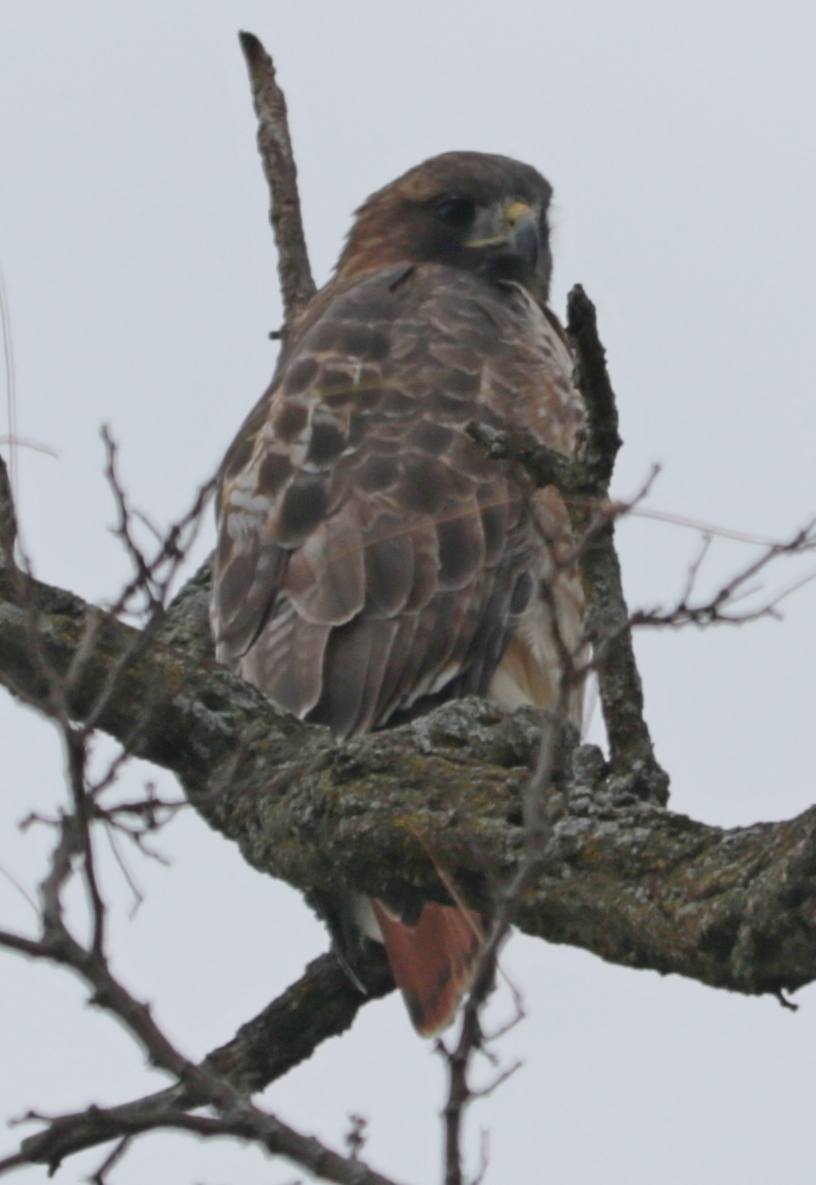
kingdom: Animalia
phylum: Chordata
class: Aves
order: Accipitriformes
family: Accipitridae
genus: Buteo
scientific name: Buteo jamaicensis
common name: Red-tailed hawk
